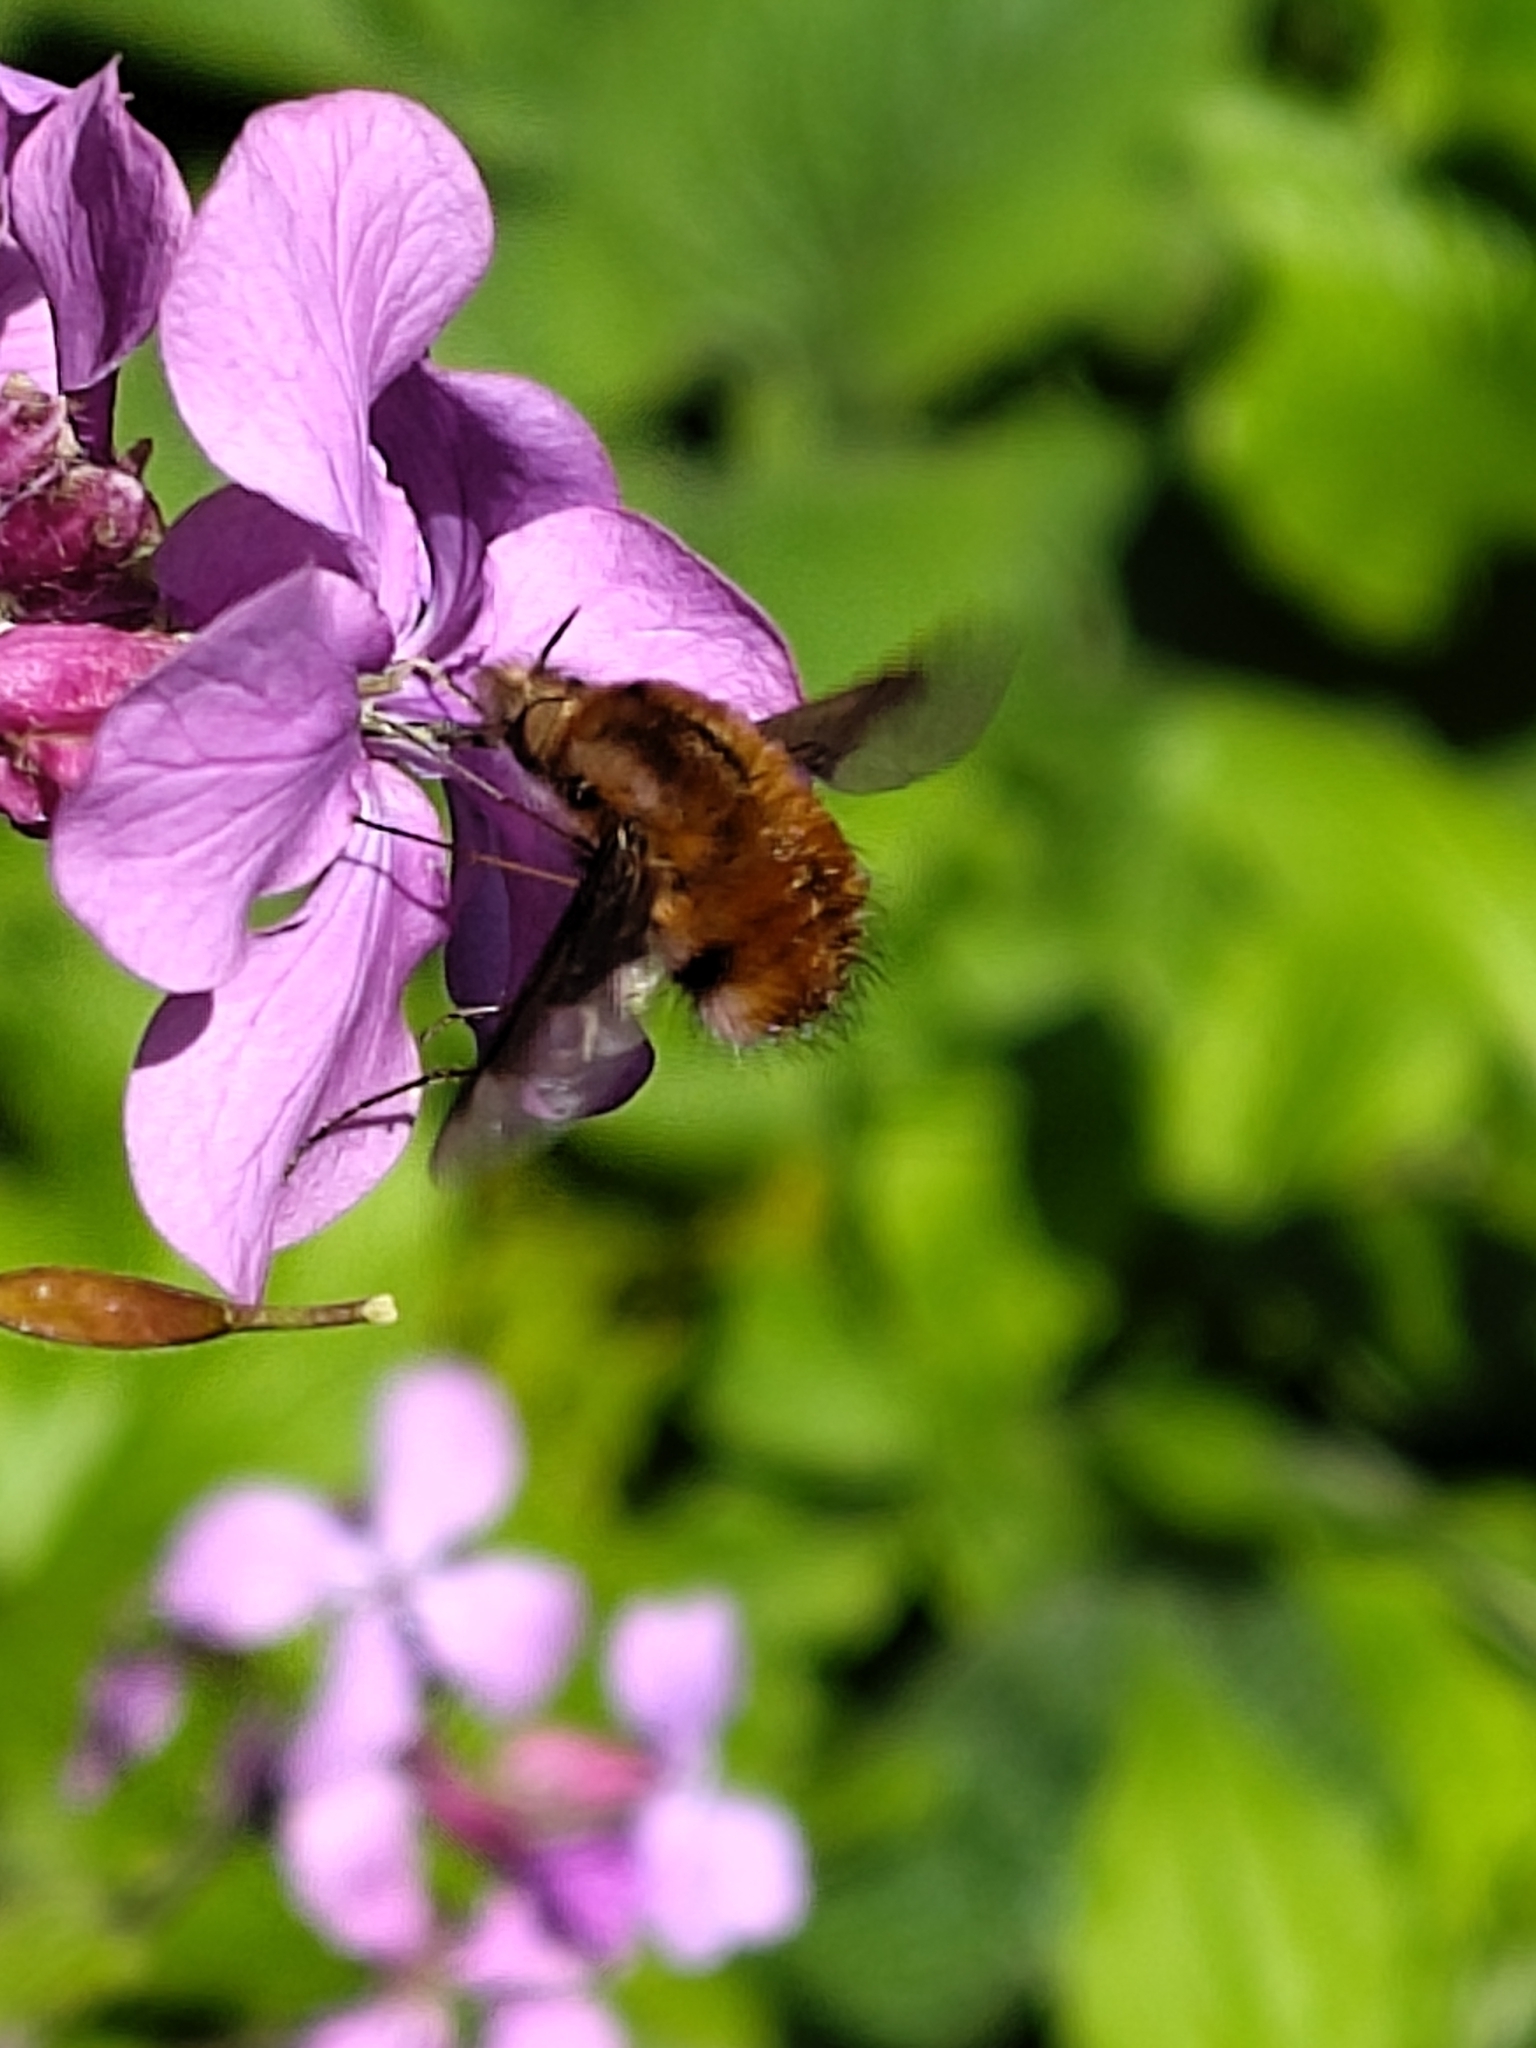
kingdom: Animalia
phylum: Arthropoda
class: Insecta
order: Diptera
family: Bombyliidae
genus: Bombylius
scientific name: Bombylius major
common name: Bee fly
